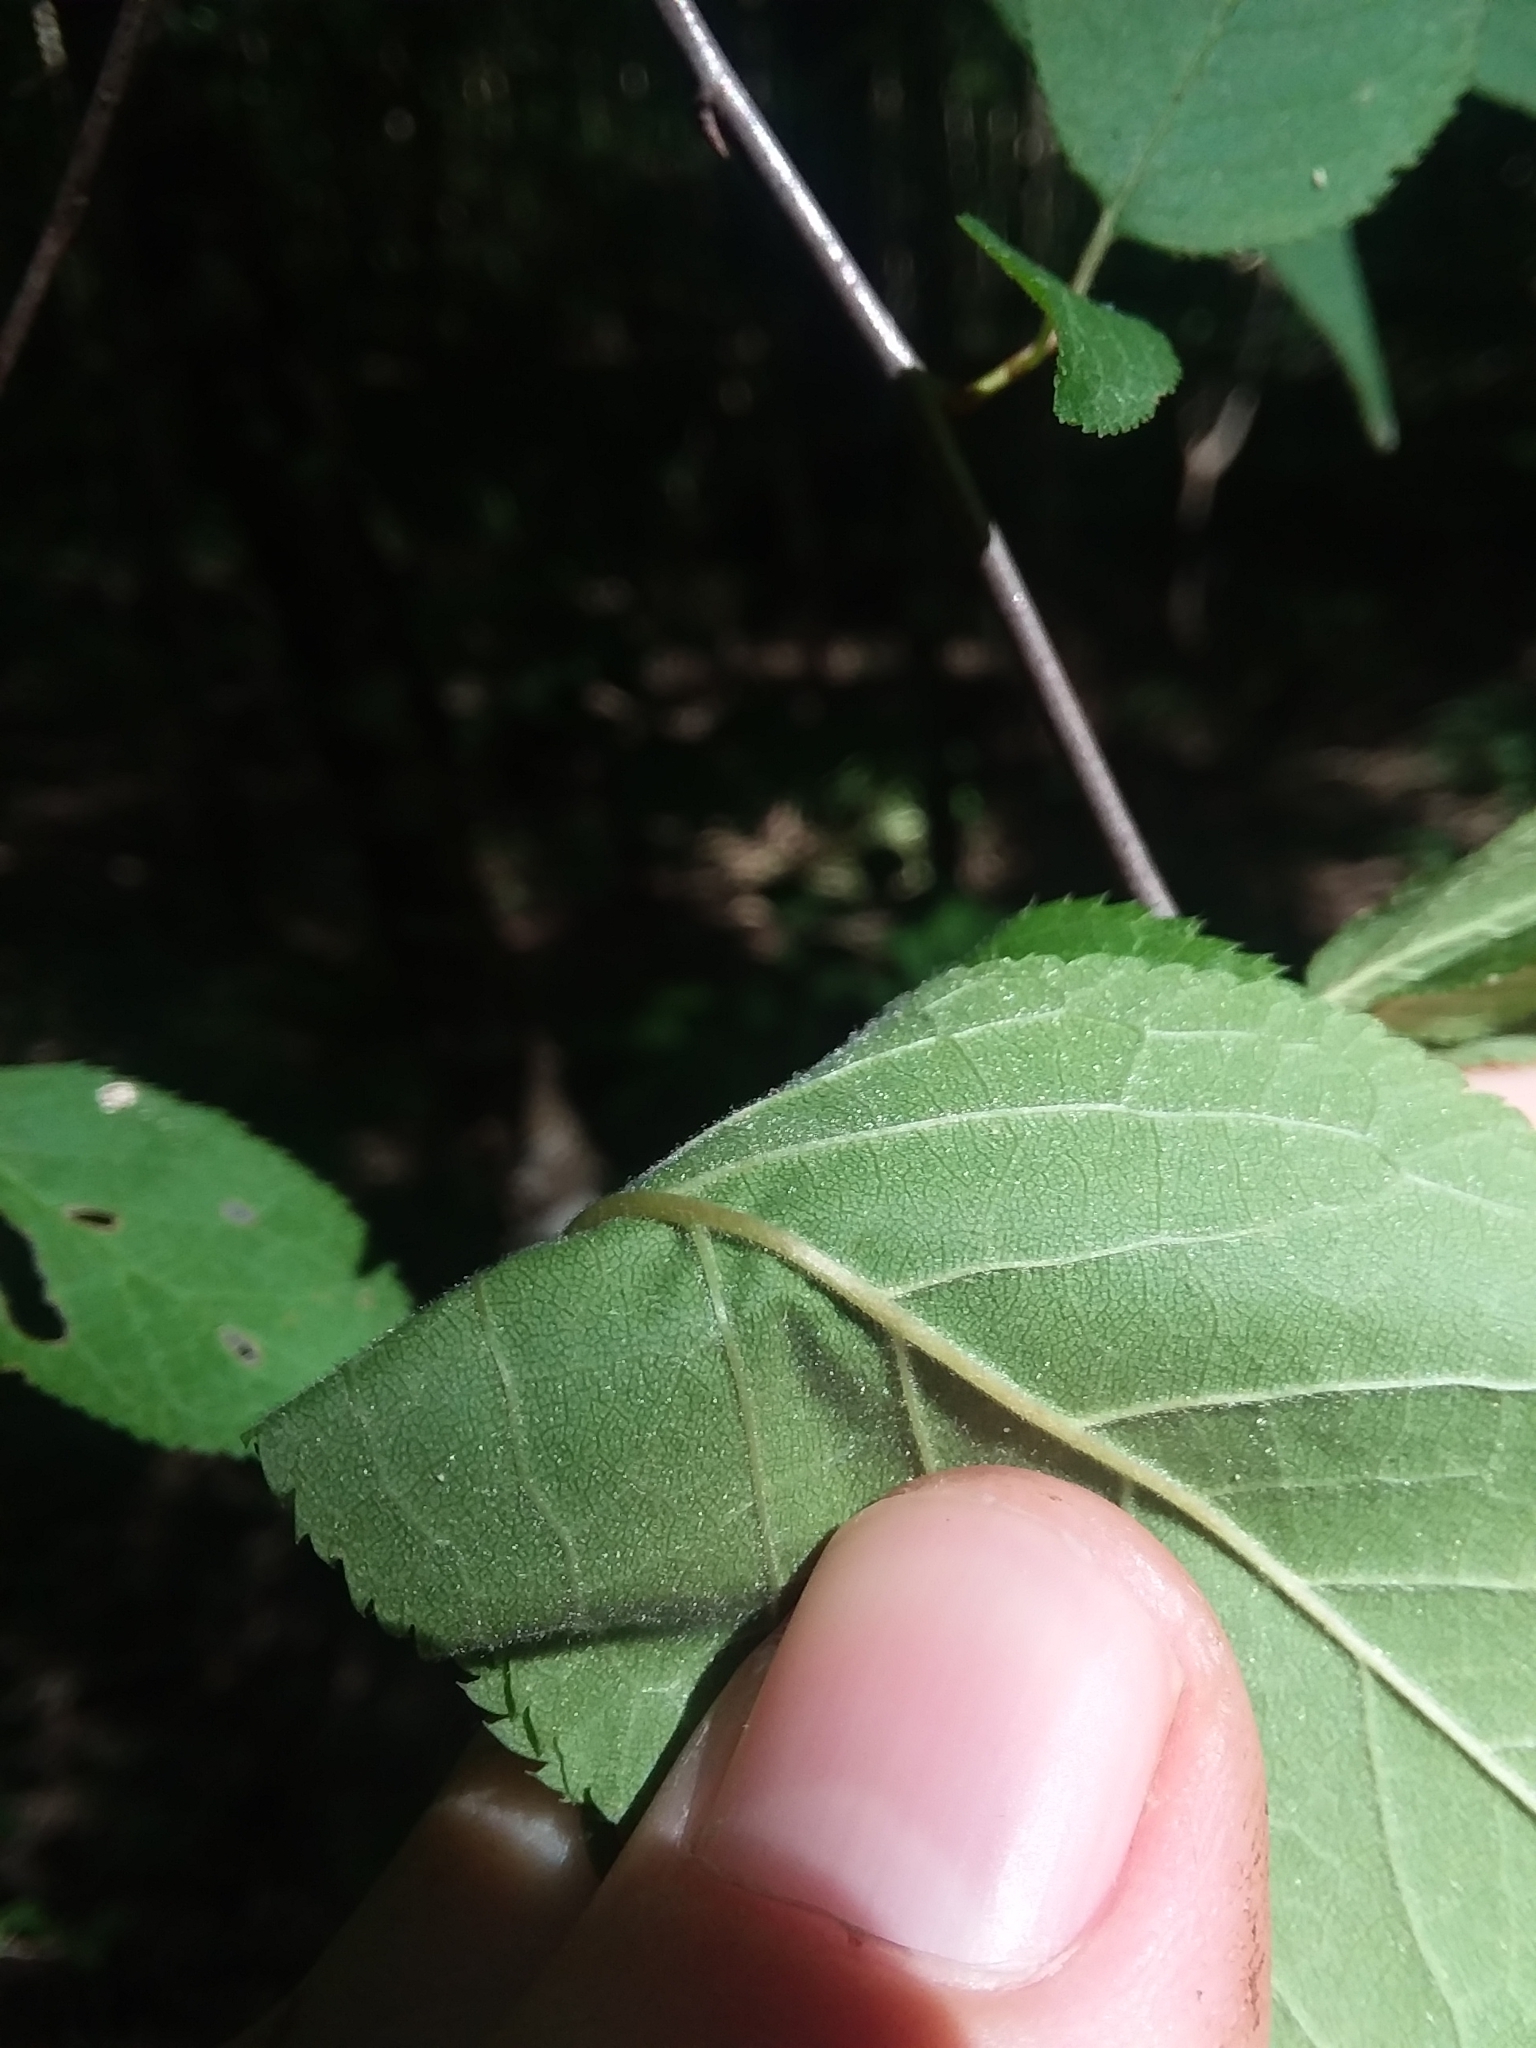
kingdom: Plantae
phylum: Tracheophyta
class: Magnoliopsida
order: Rosales
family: Rosaceae
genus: Prunus
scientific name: Prunus mexicana
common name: Mexican plum
